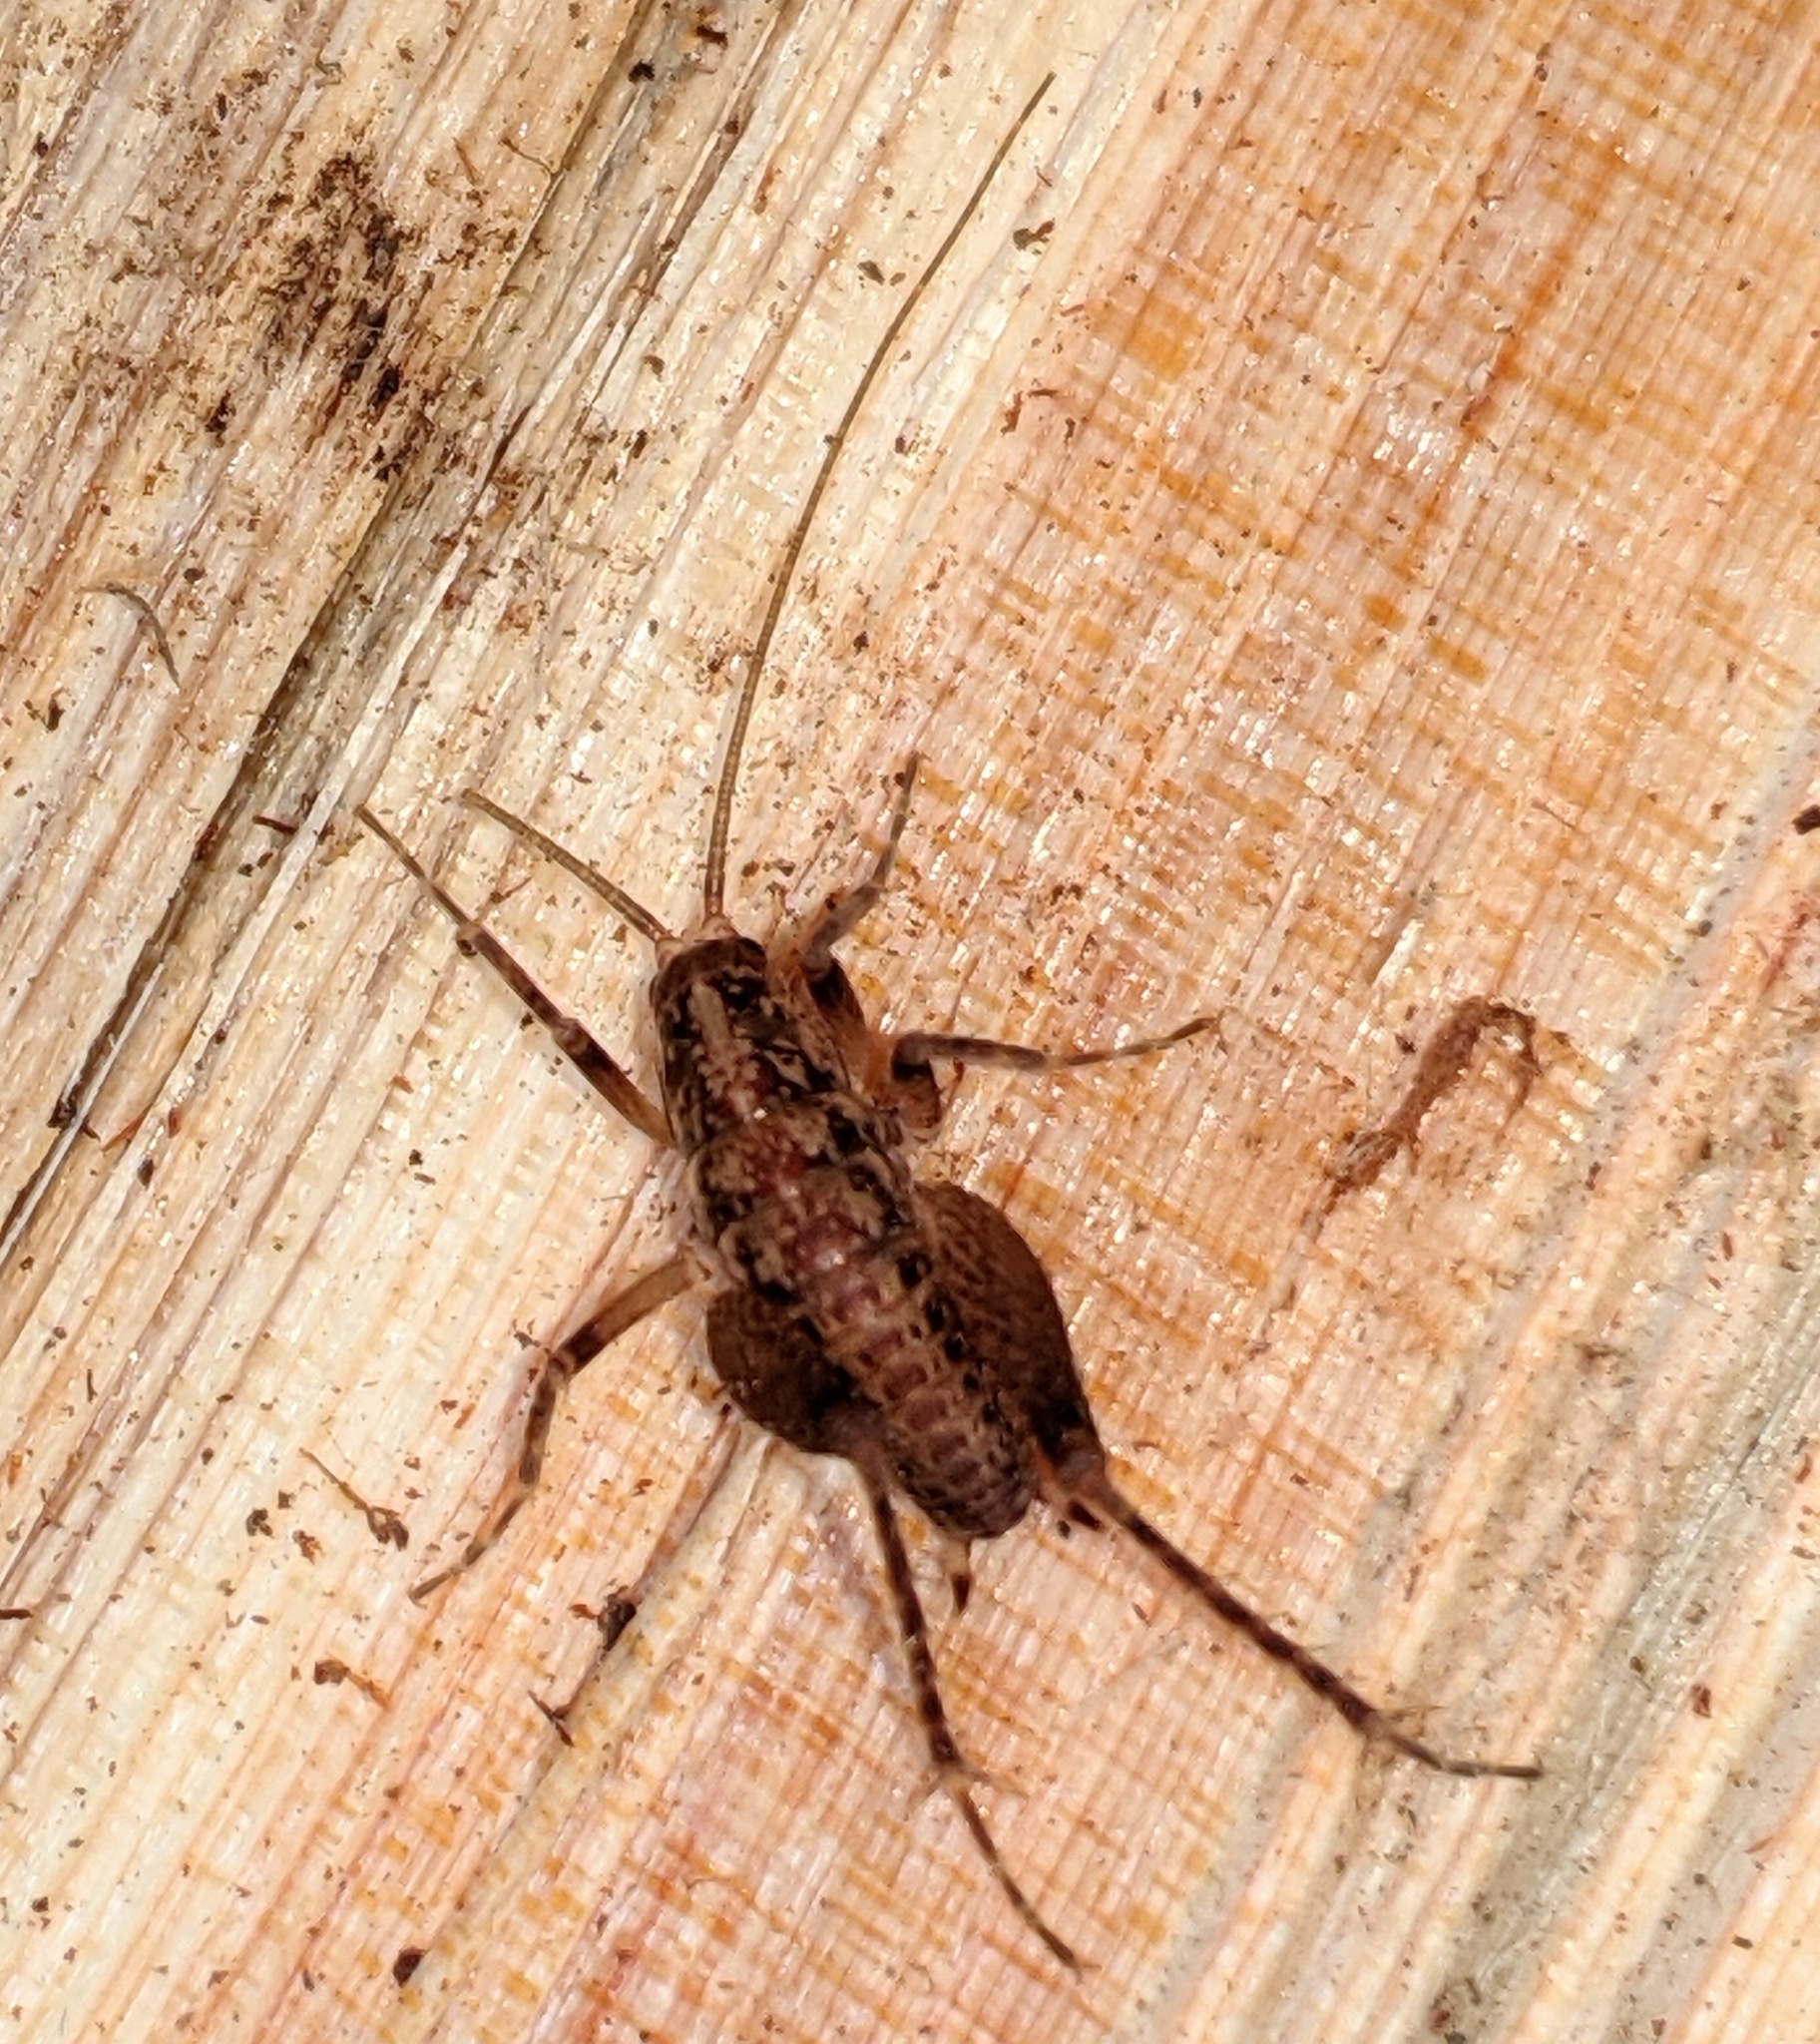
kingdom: Animalia
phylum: Arthropoda
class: Insecta
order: Orthoptera
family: Rhaphidophoridae
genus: Pristoceuthophilus
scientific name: Pristoceuthophilus celatus
